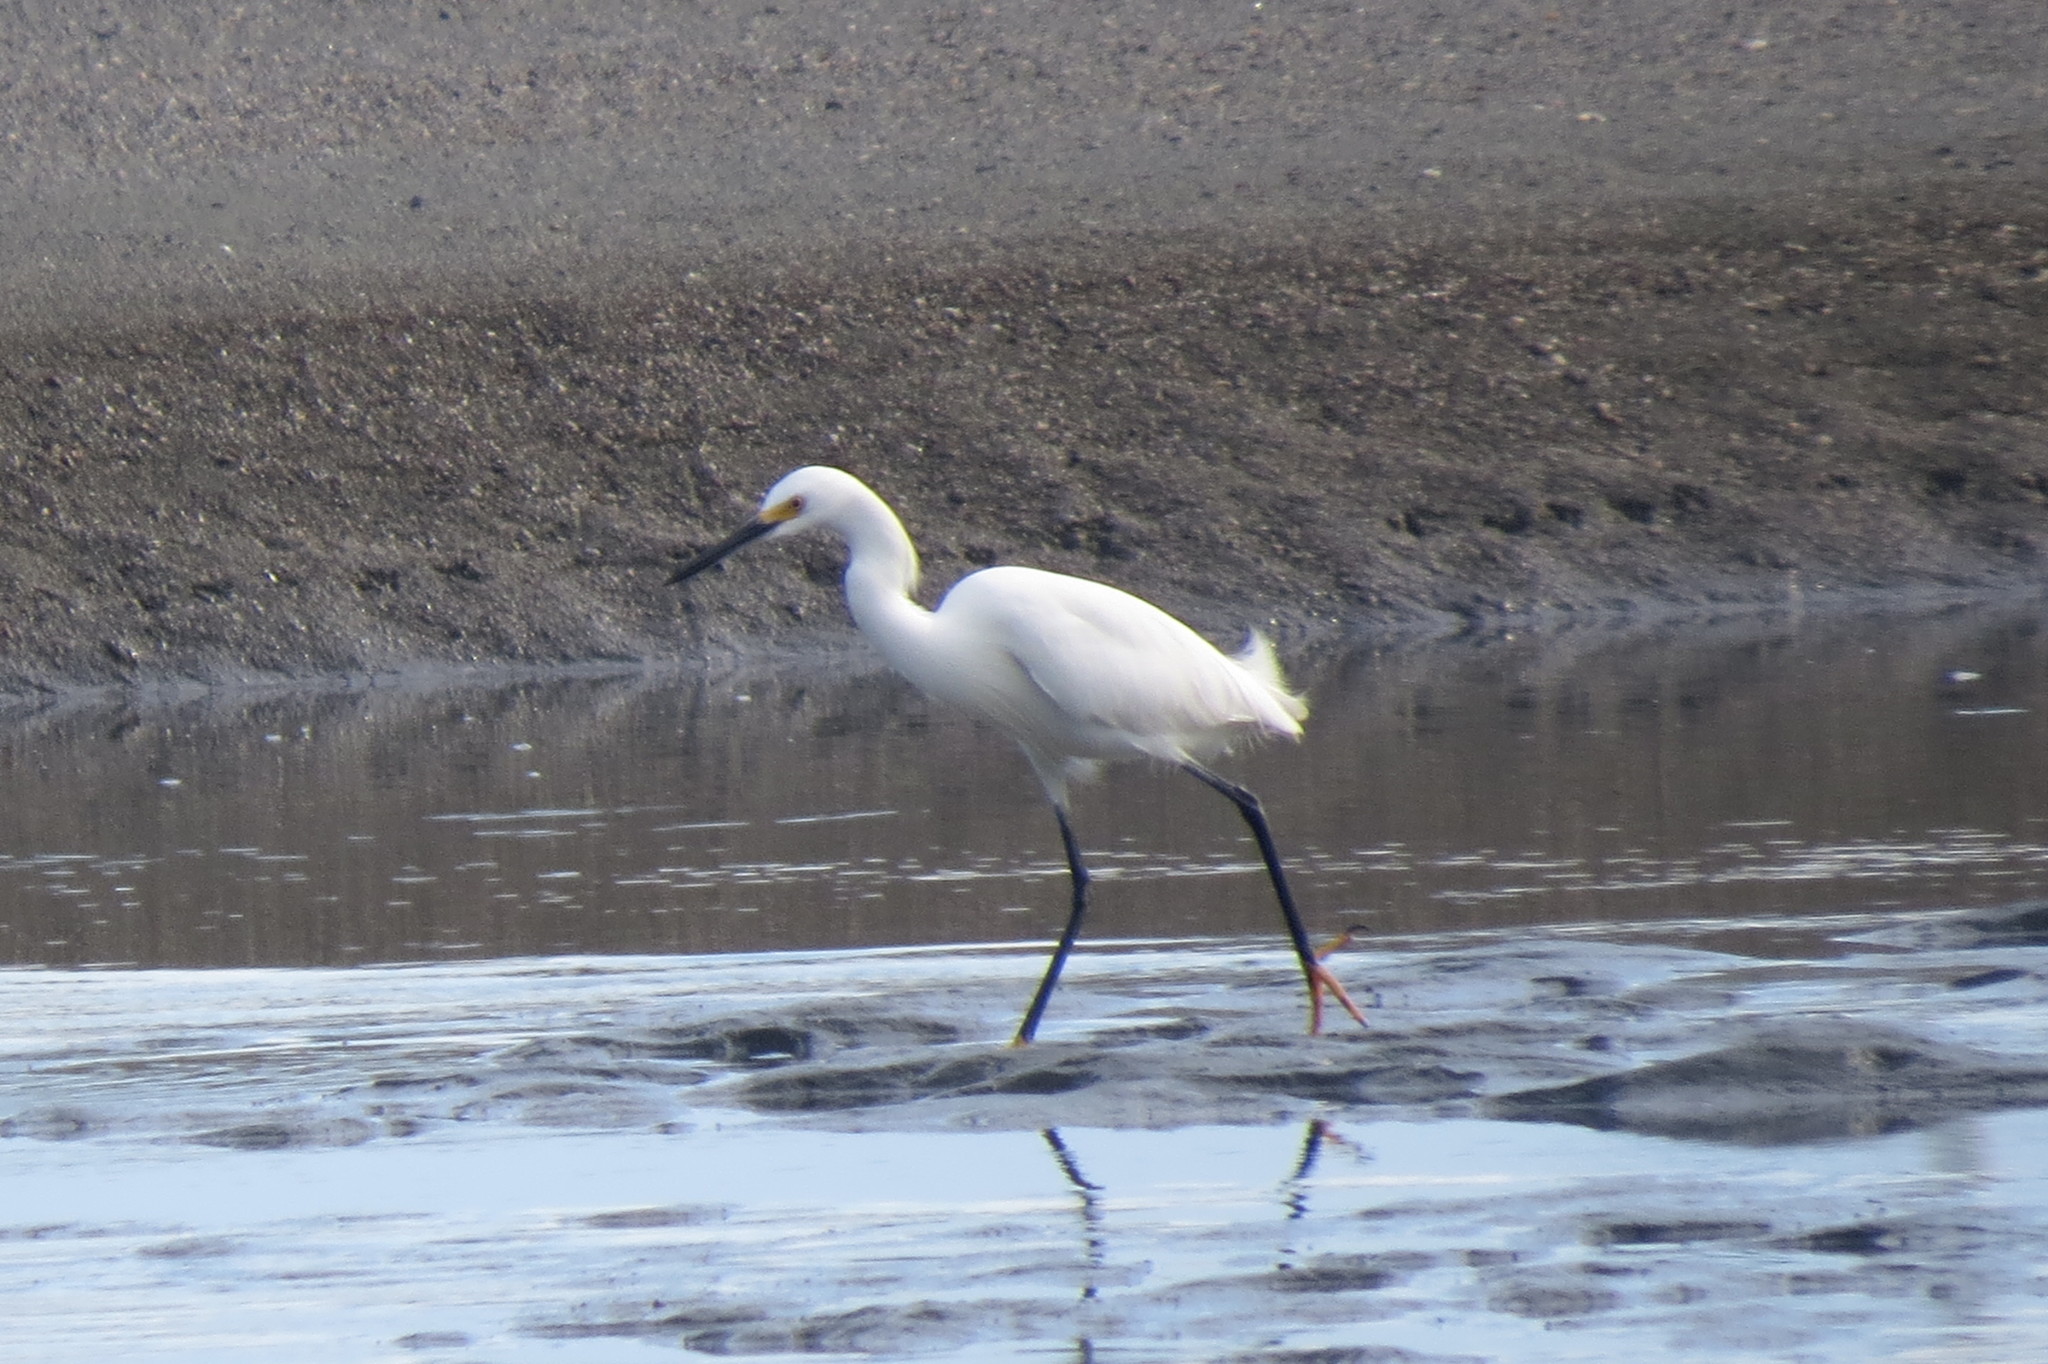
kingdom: Animalia
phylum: Chordata
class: Aves
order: Pelecaniformes
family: Ardeidae
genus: Egretta
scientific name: Egretta thula
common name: Snowy egret
